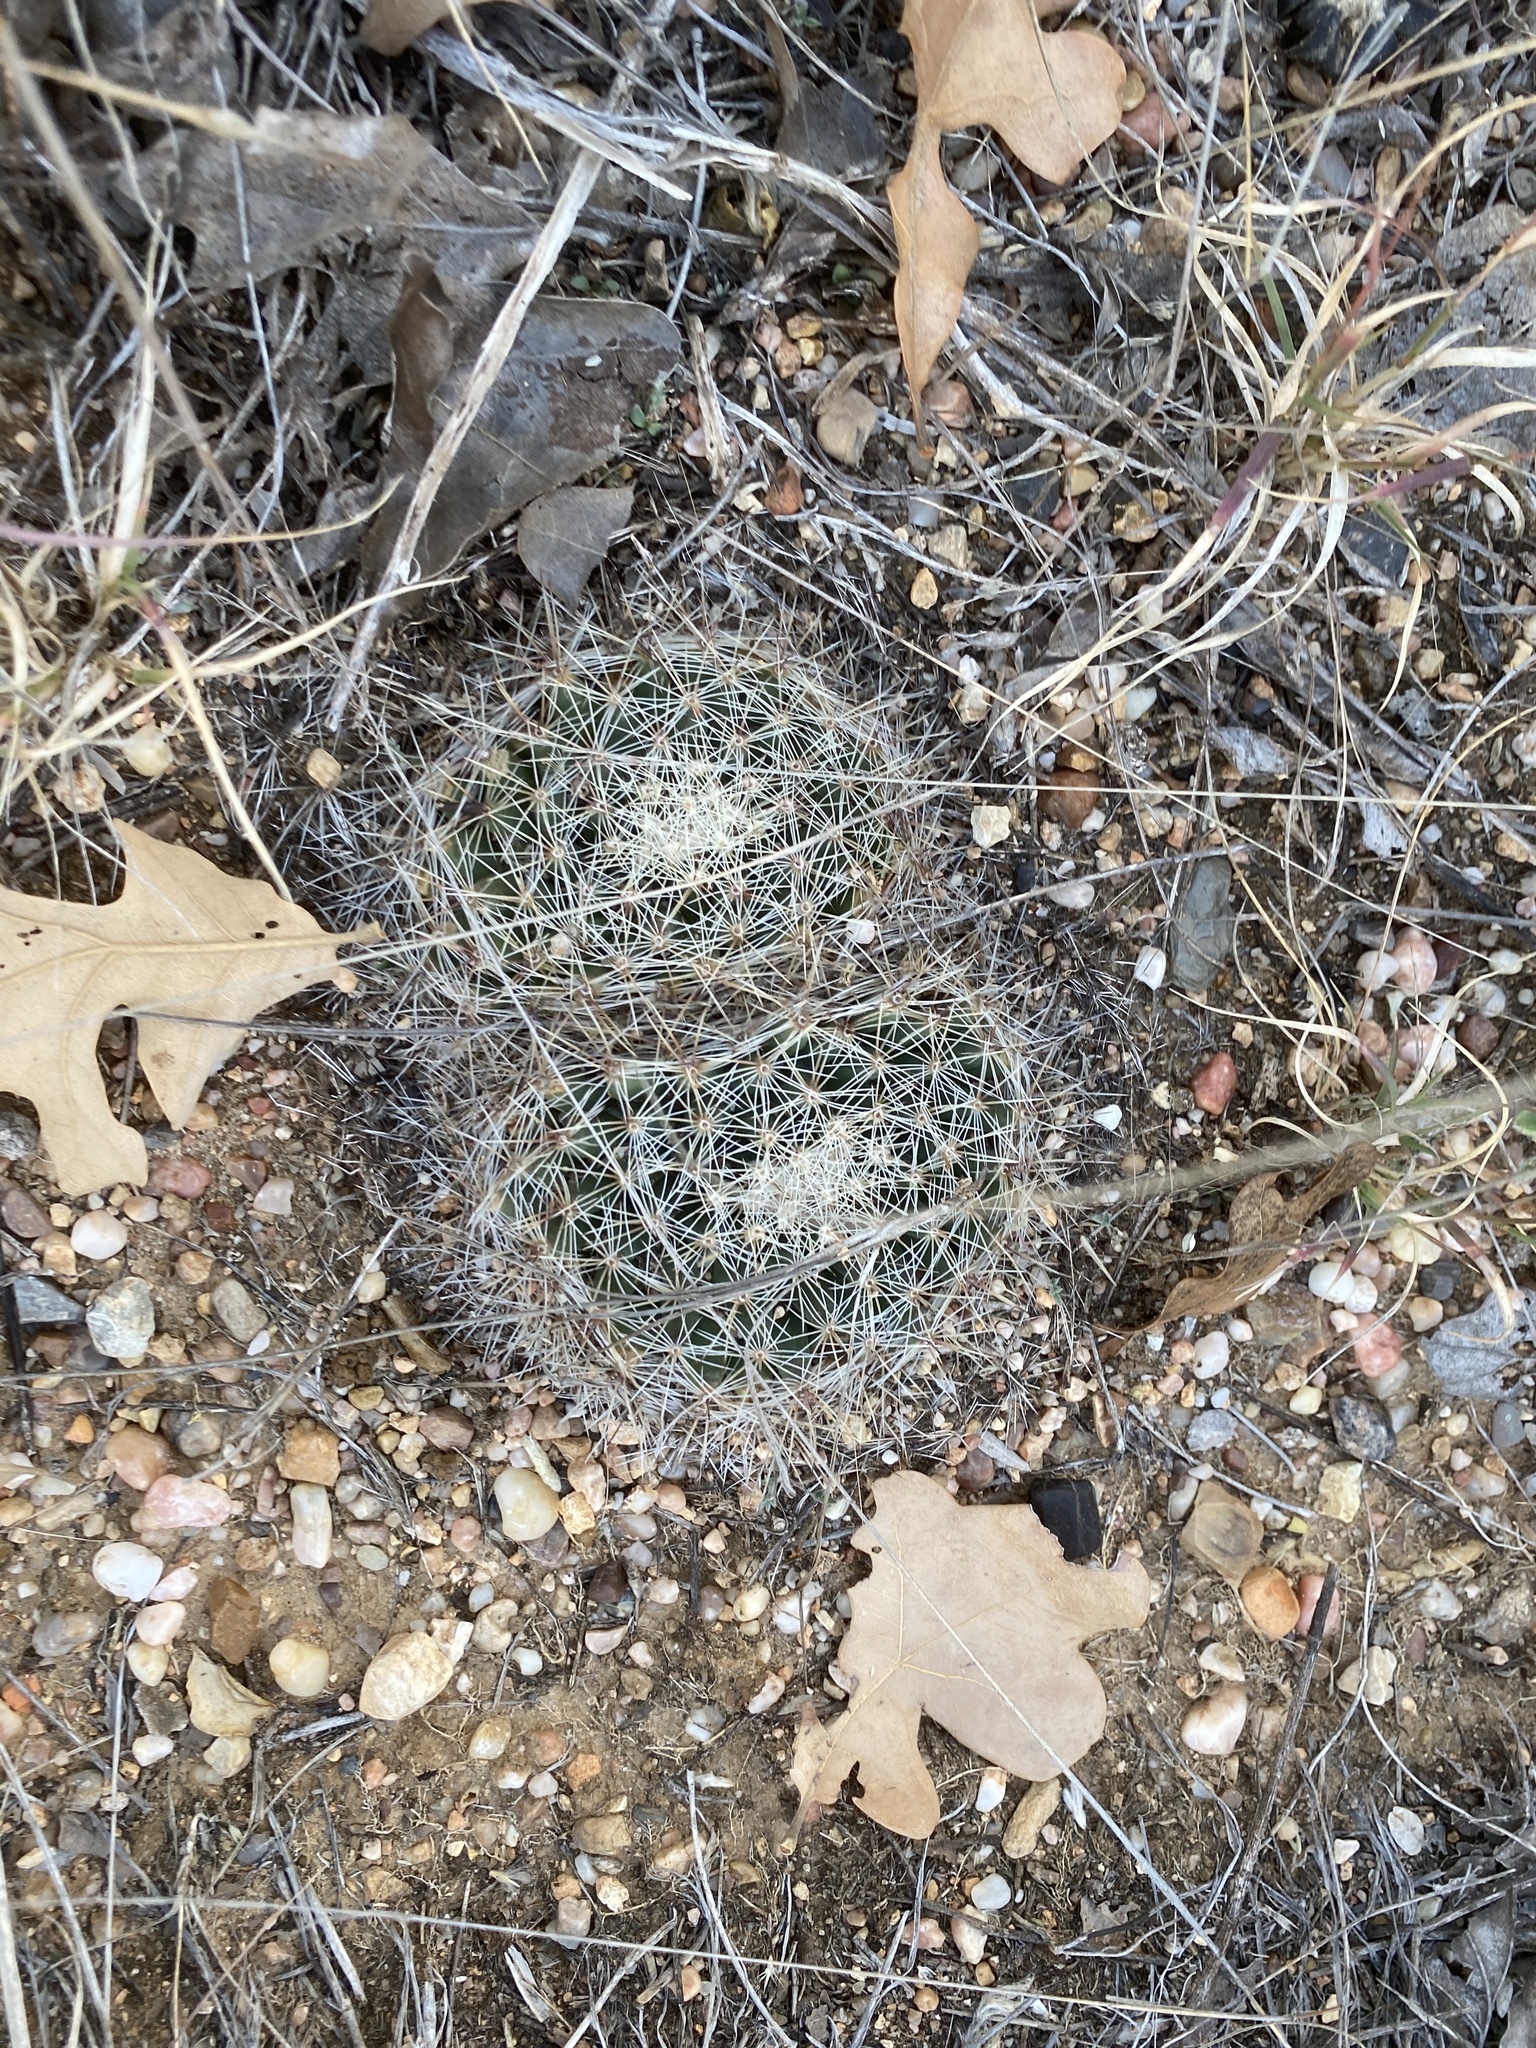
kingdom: Plantae
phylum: Tracheophyta
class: Magnoliopsida
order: Caryophyllales
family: Cactaceae
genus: Mammillaria
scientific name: Mammillaria heyderi
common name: Little nipple cactus
